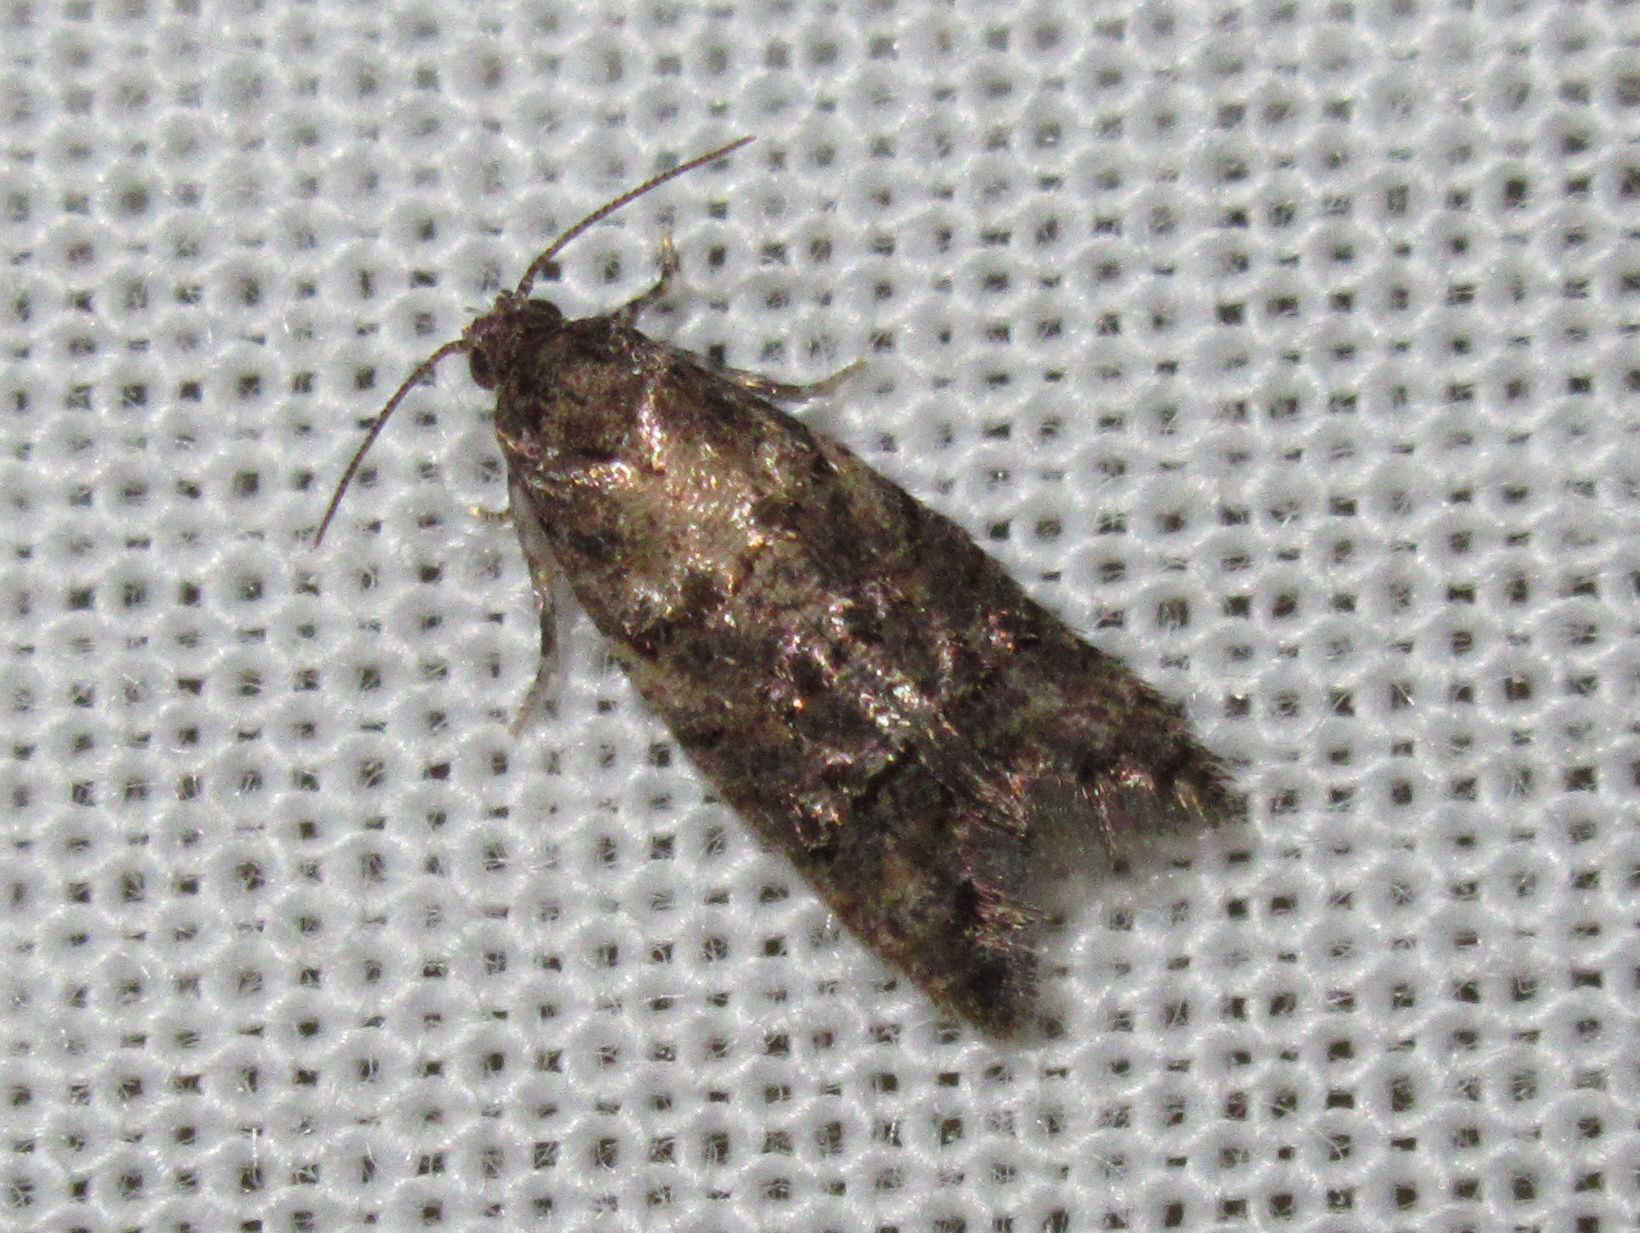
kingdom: Animalia
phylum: Arthropoda
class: Insecta
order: Lepidoptera
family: Tortricidae
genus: Lopharcha
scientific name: Lopharcha insolita
